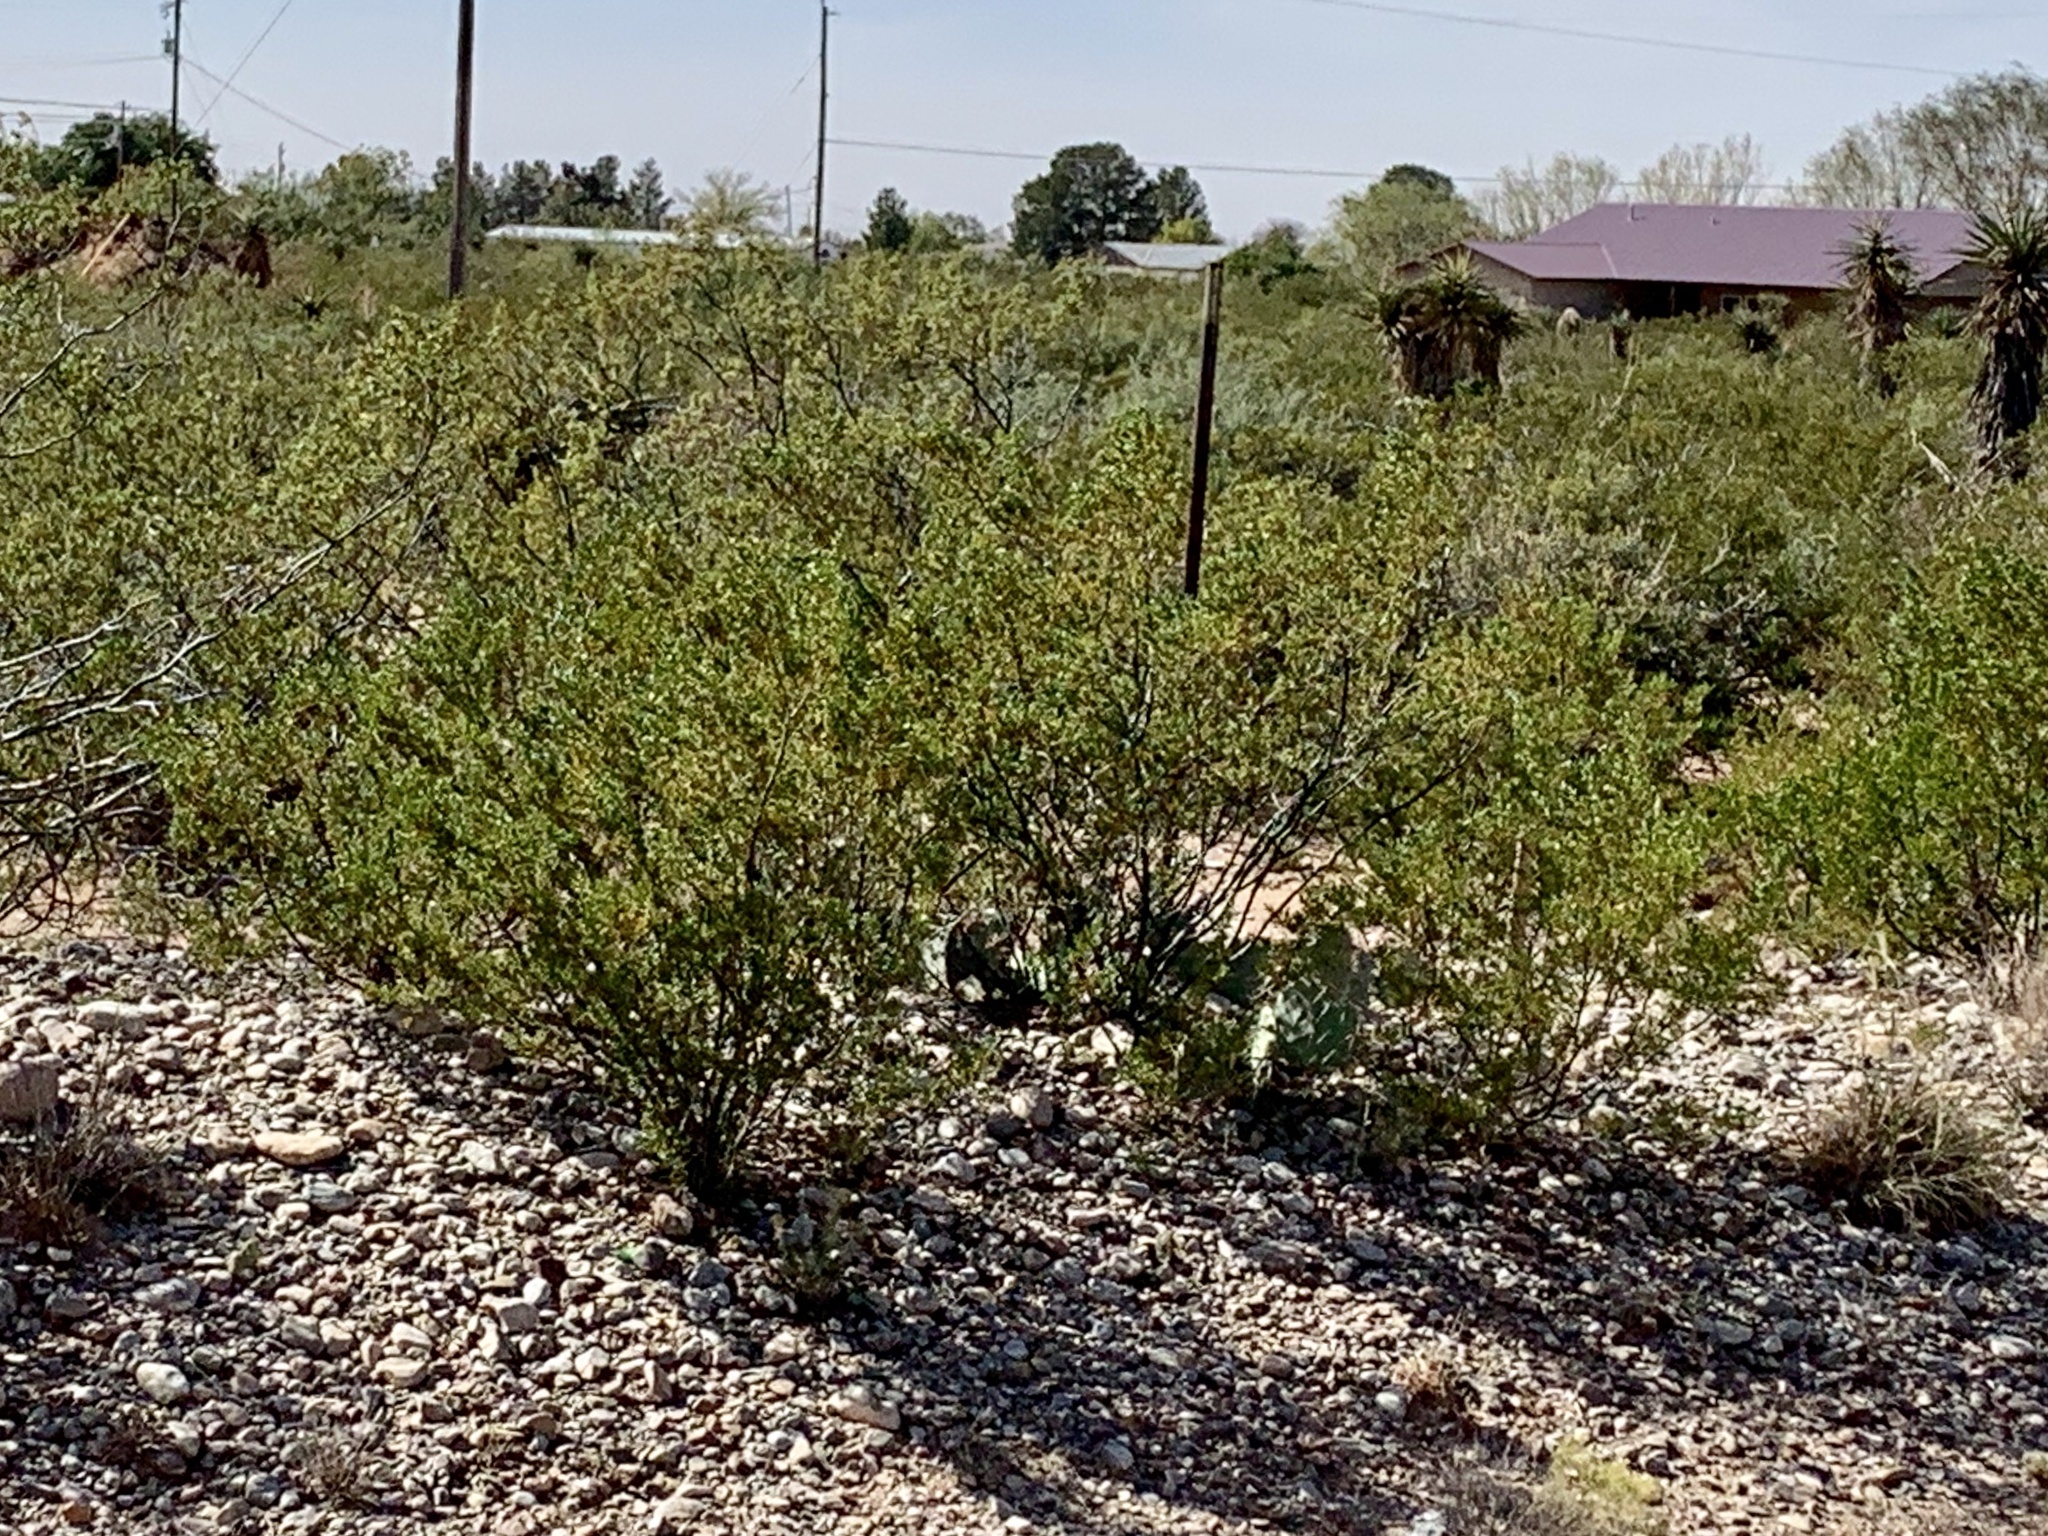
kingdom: Plantae
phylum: Tracheophyta
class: Magnoliopsida
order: Zygophyllales
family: Zygophyllaceae
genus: Larrea
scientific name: Larrea tridentata
